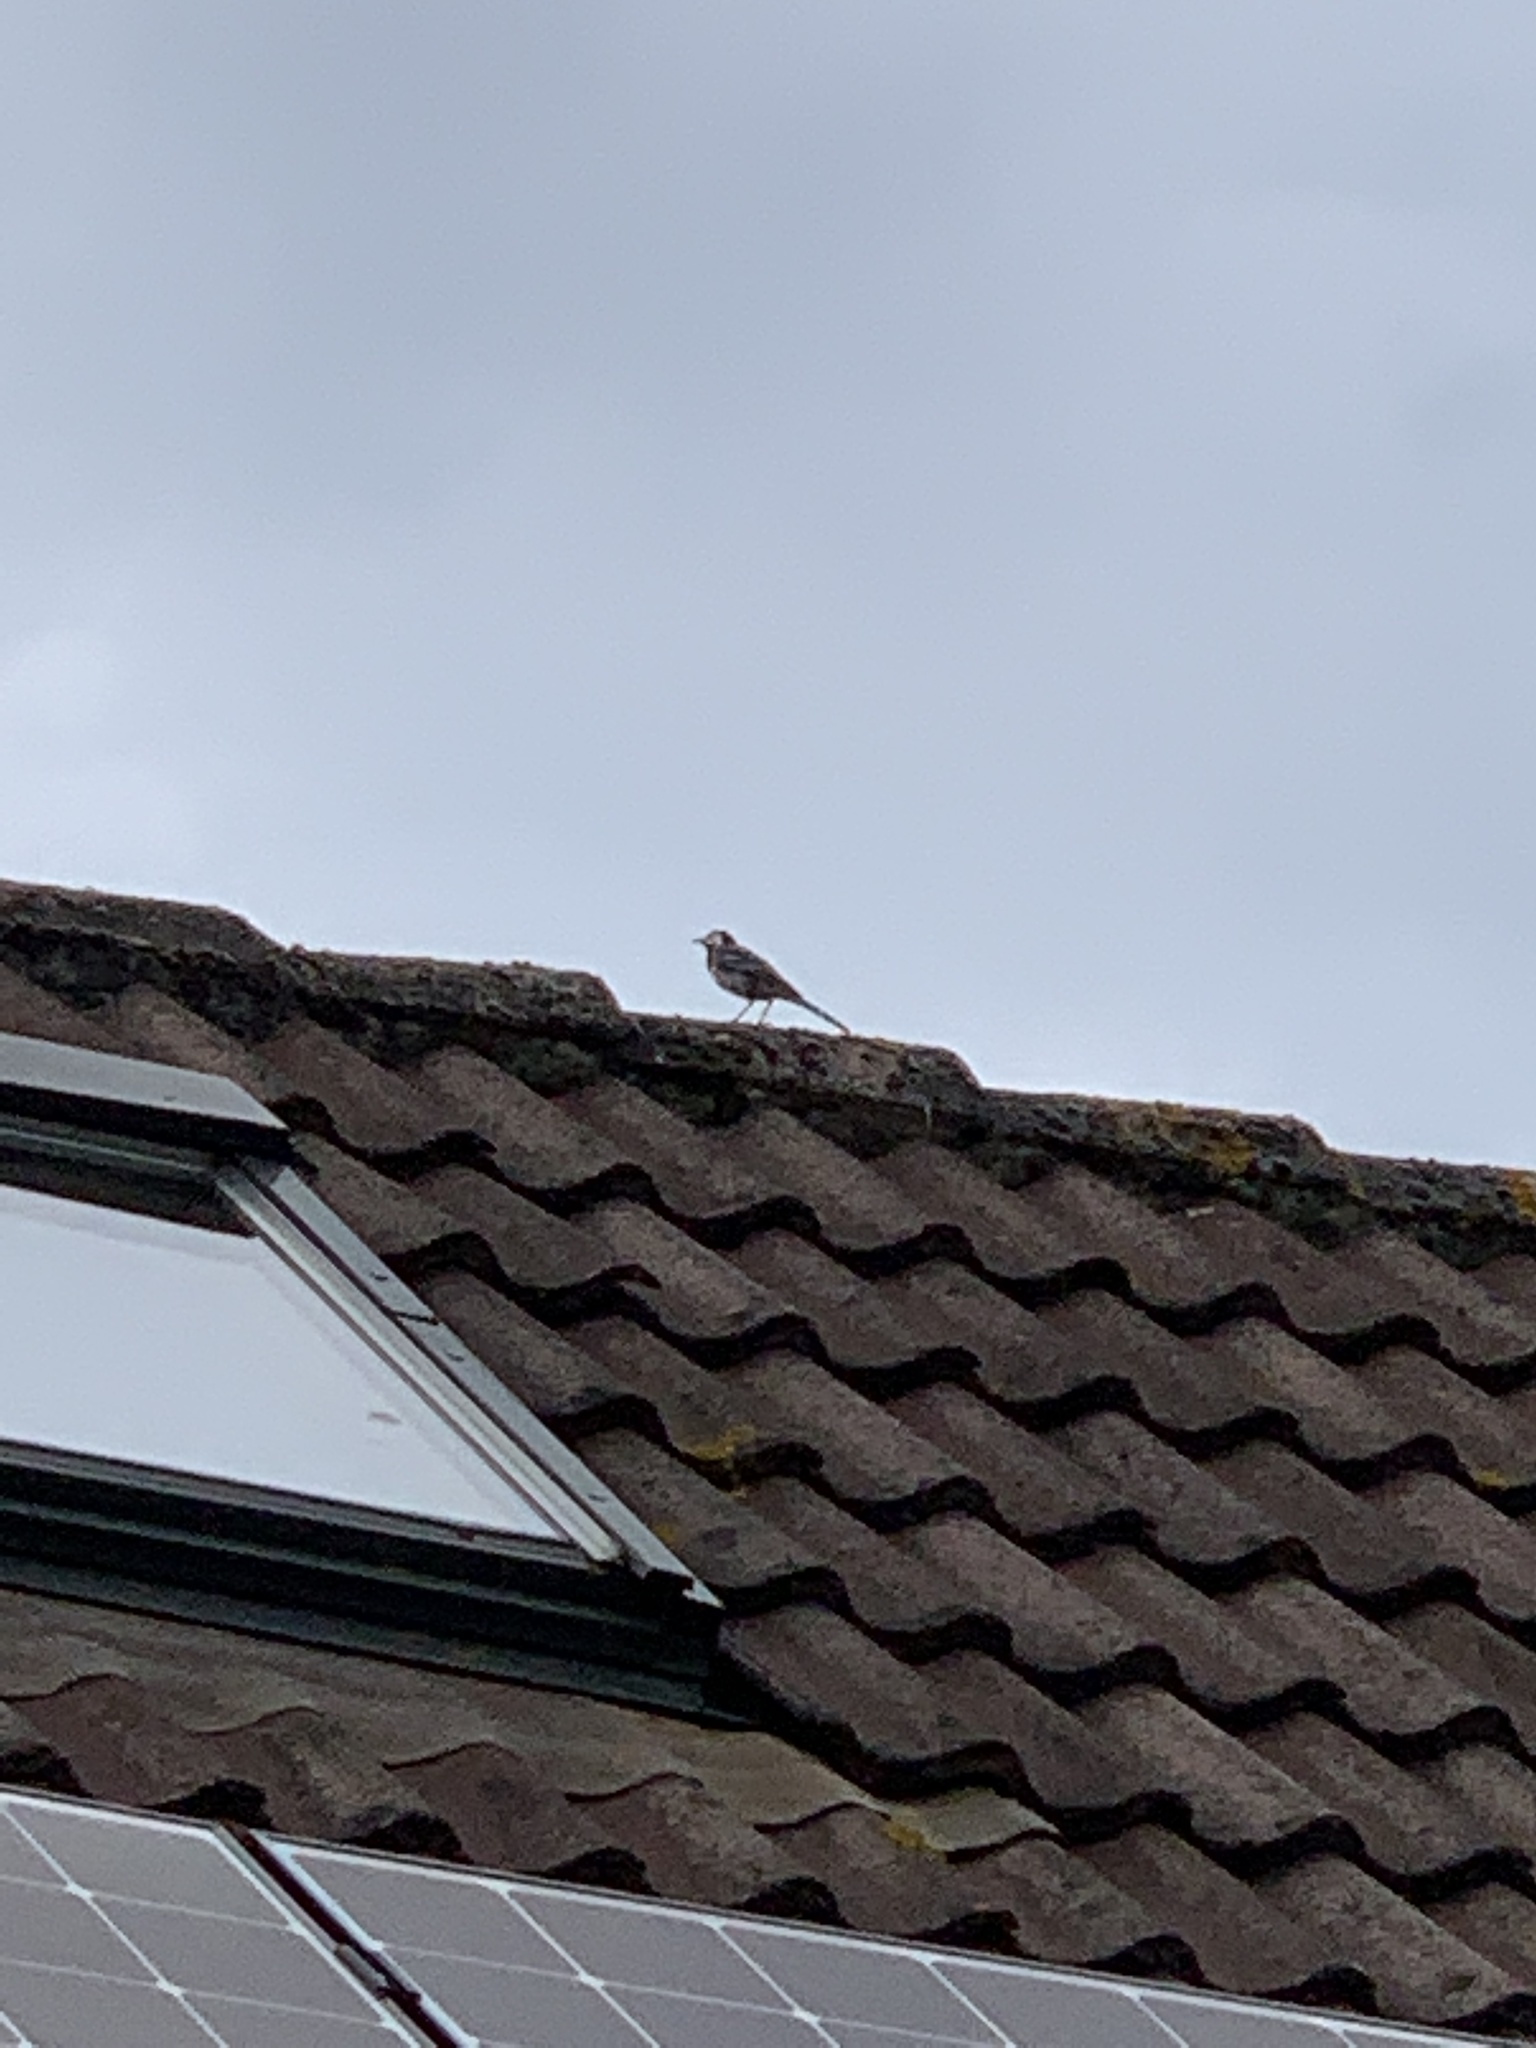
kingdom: Animalia
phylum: Chordata
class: Aves
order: Passeriformes
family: Motacillidae
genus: Motacilla
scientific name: Motacilla alba
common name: White wagtail
